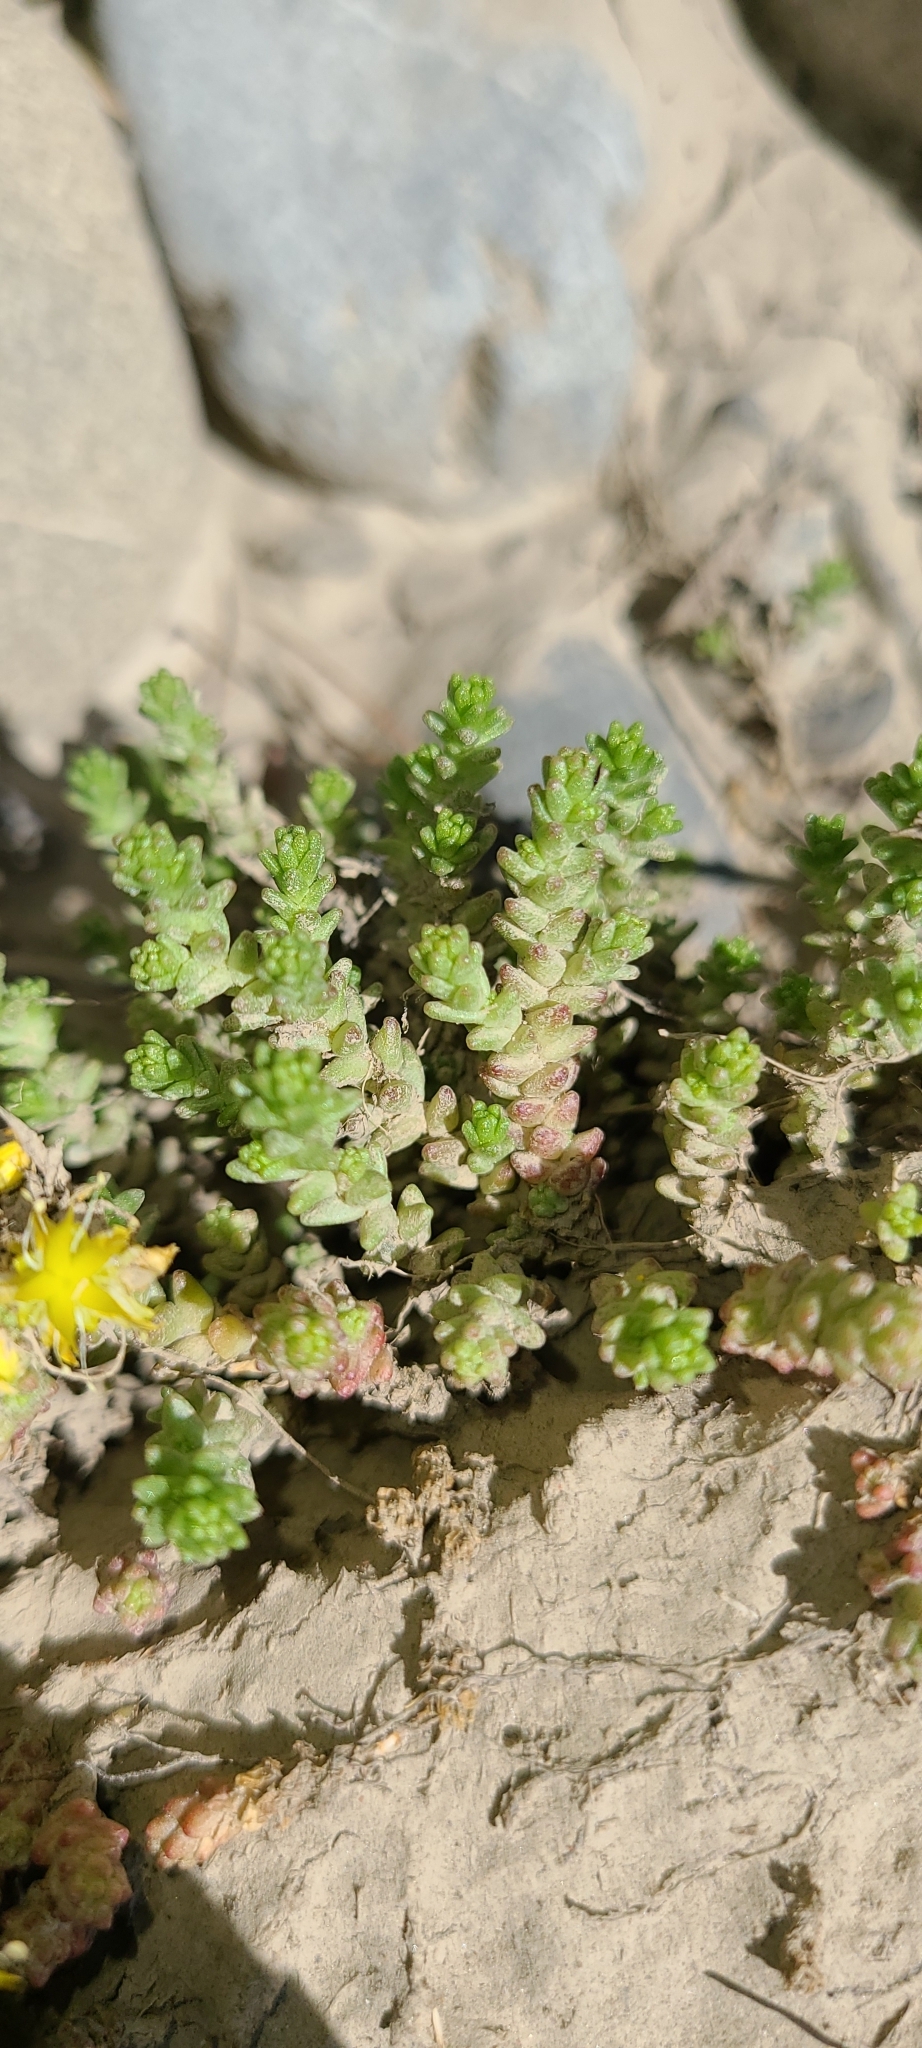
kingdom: Plantae
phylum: Tracheophyta
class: Magnoliopsida
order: Saxifragales
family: Crassulaceae
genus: Sedum
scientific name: Sedum acre
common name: Biting stonecrop
